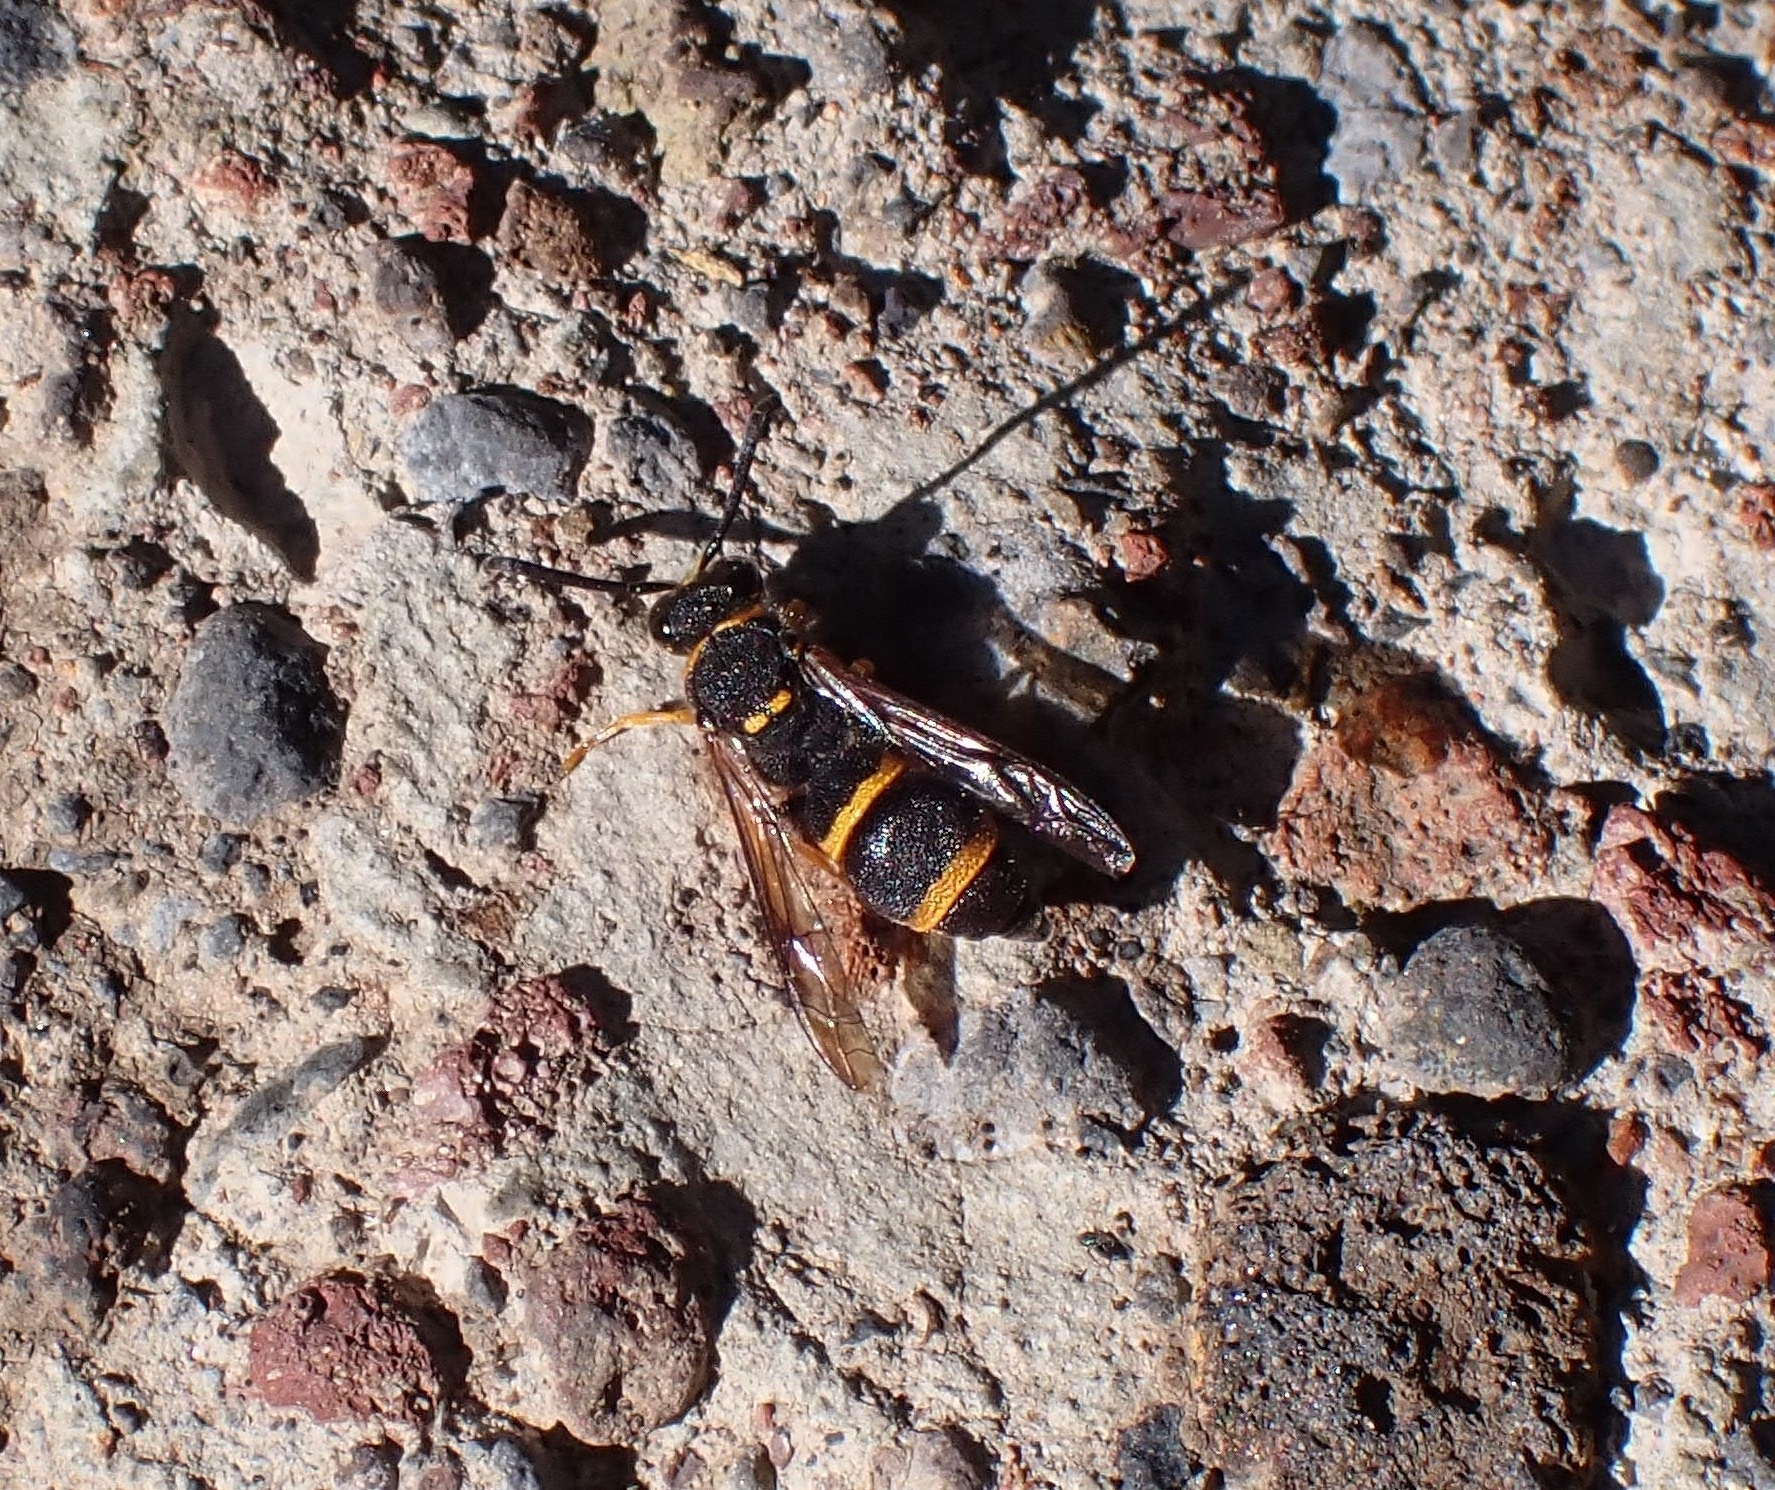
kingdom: Animalia
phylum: Arthropoda
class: Insecta
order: Hymenoptera
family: Vespidae
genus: Ancistrocerus
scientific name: Ancistrocerus fortunatus
